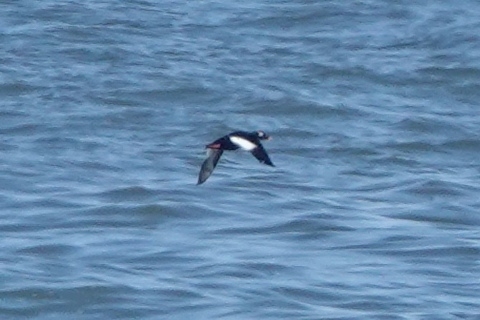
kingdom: Animalia
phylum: Chordata
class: Aves
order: Anseriformes
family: Anatidae
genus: Melanitta
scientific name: Melanitta stejnegeri
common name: Stejneger's scoter
